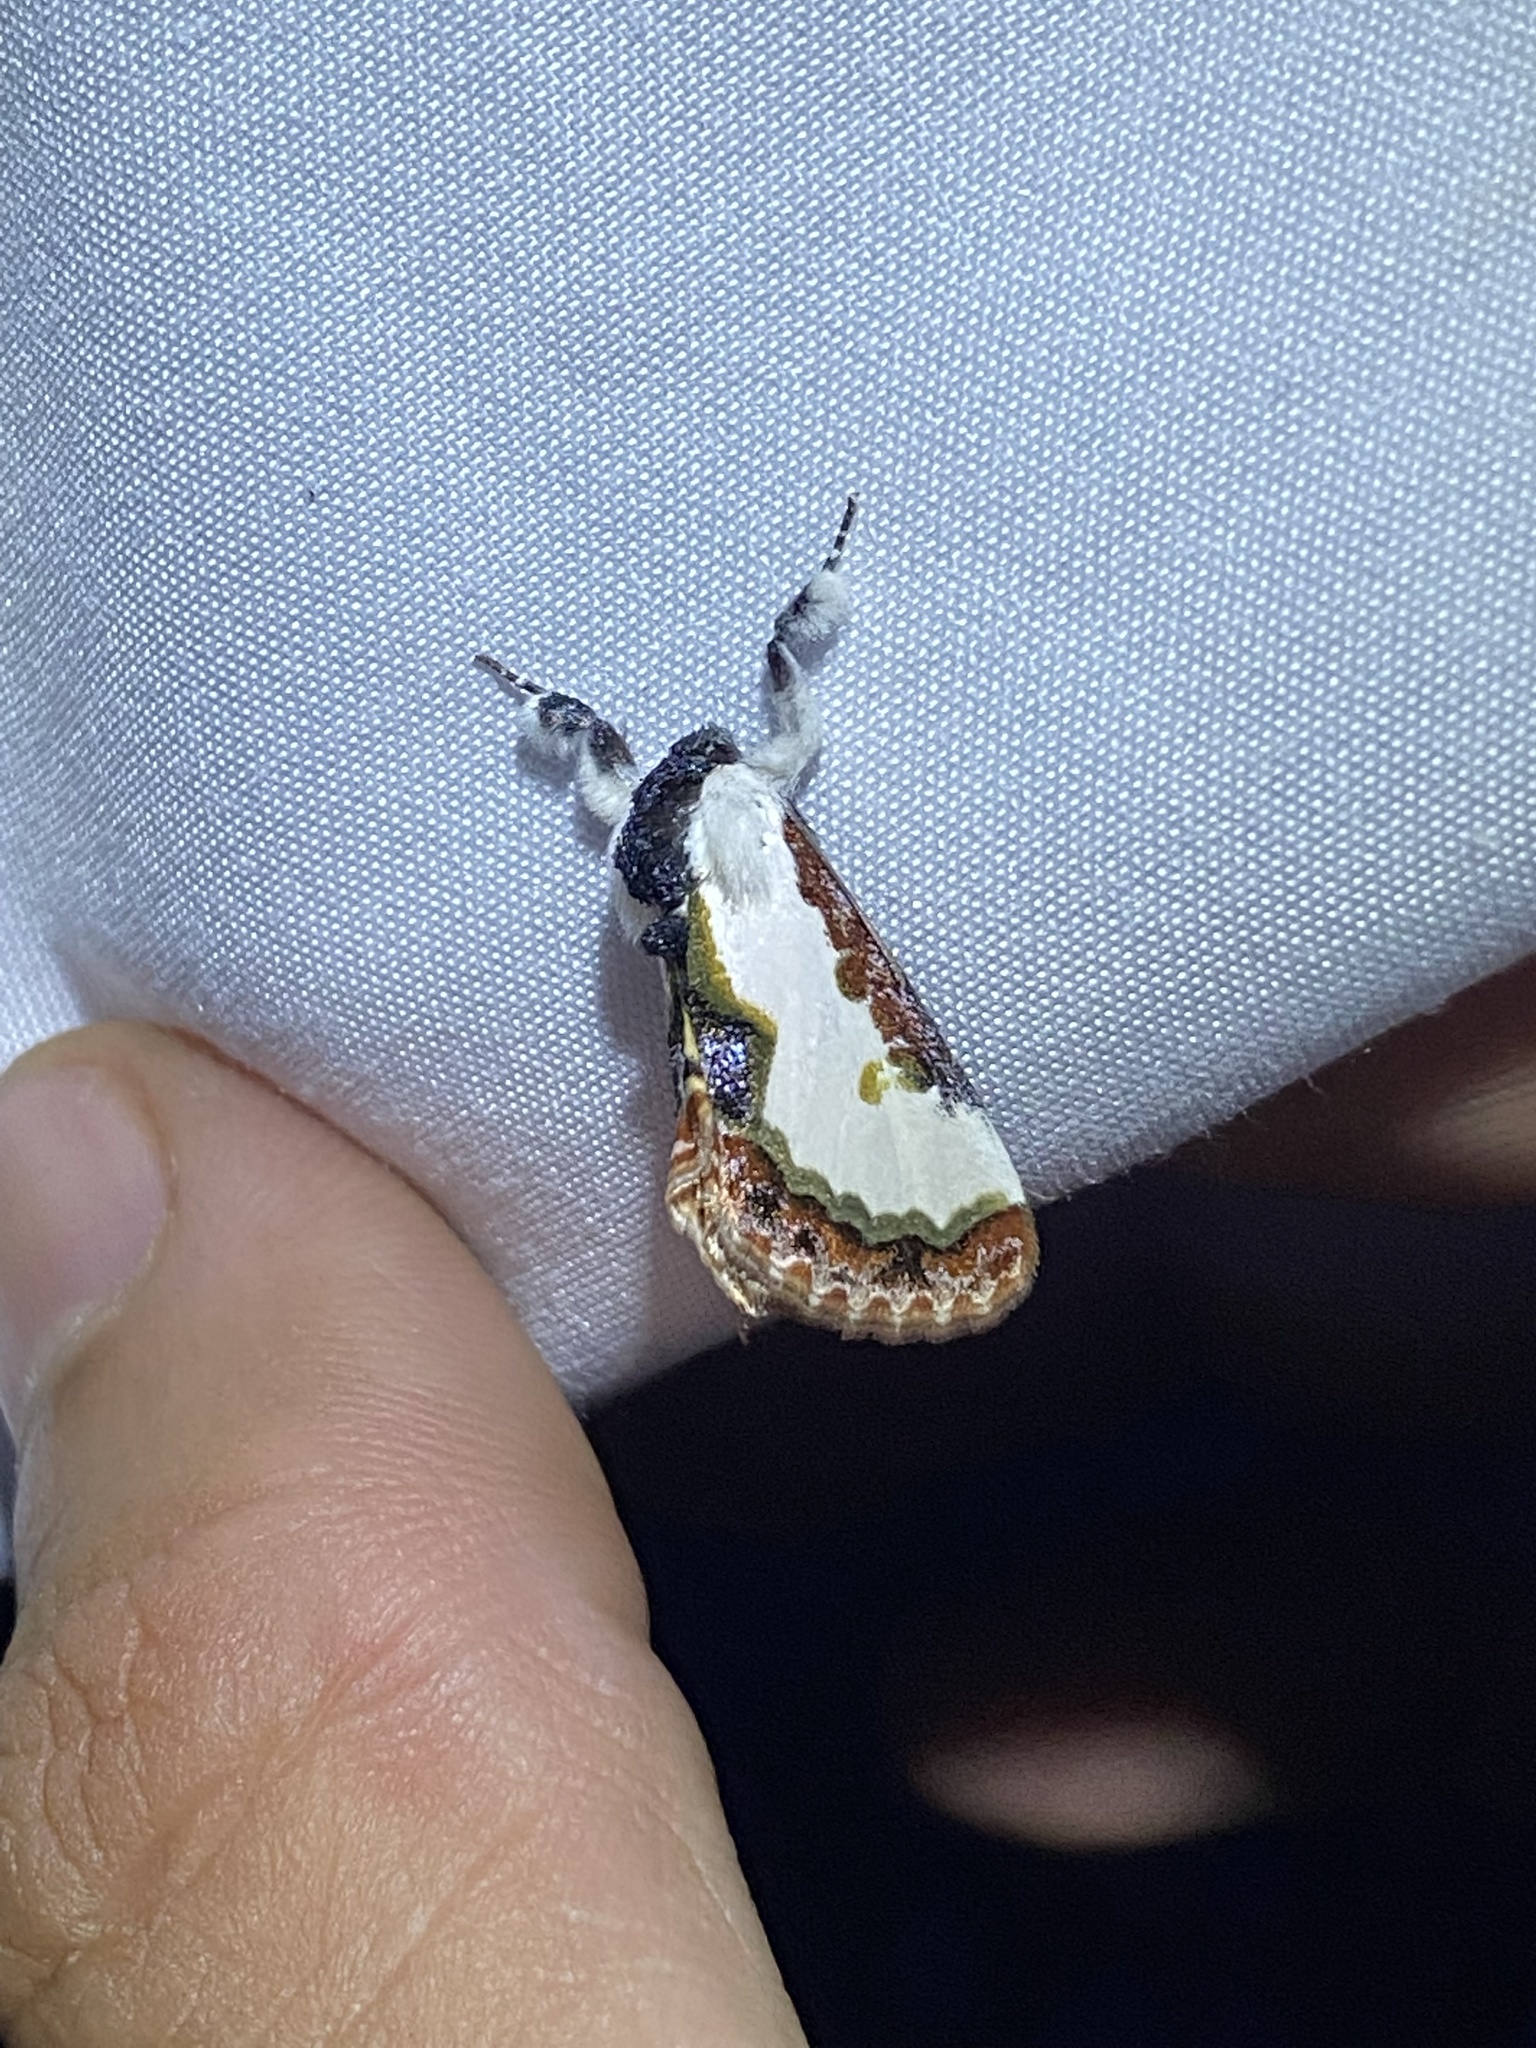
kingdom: Animalia
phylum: Arthropoda
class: Insecta
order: Lepidoptera
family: Noctuidae
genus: Eudryas
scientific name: Eudryas unio
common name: Pearly wood-nymph
